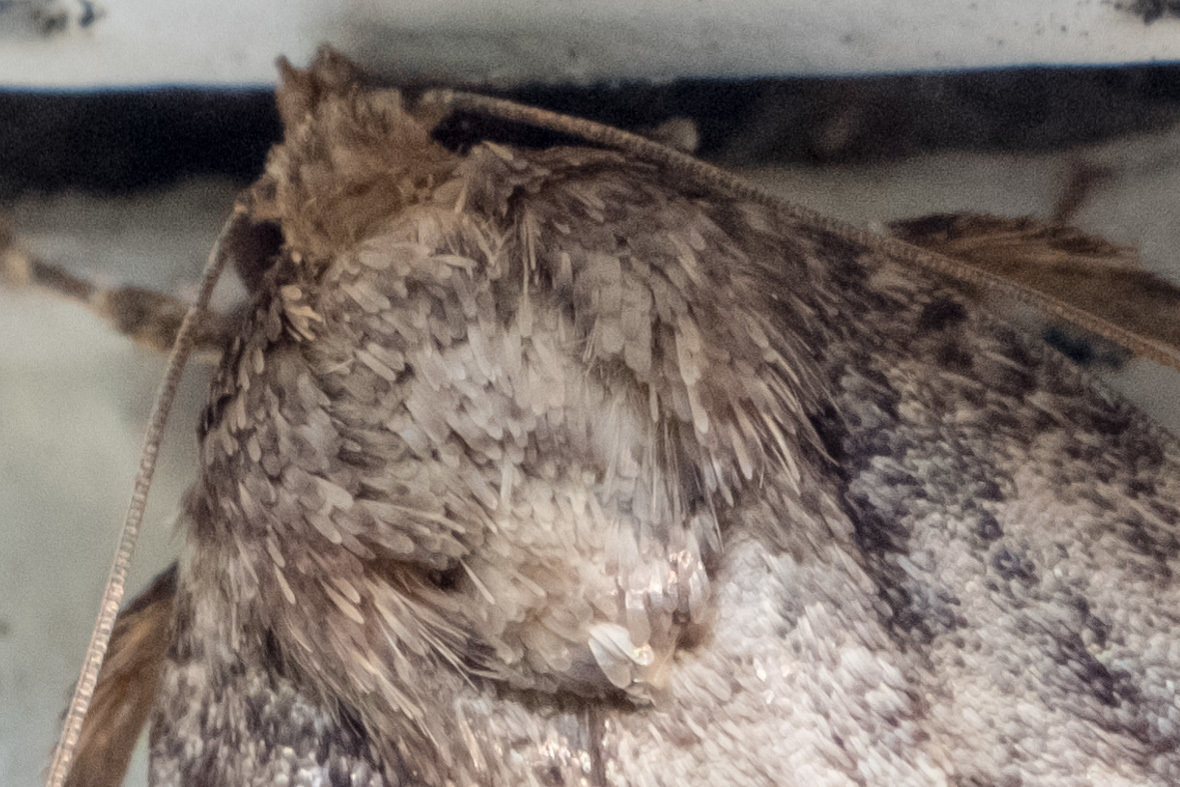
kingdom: Animalia
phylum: Arthropoda
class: Insecta
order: Lepidoptera
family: Noctuidae
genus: Amphipyra
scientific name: Amphipyra pyramidoides
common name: American copper underwing
